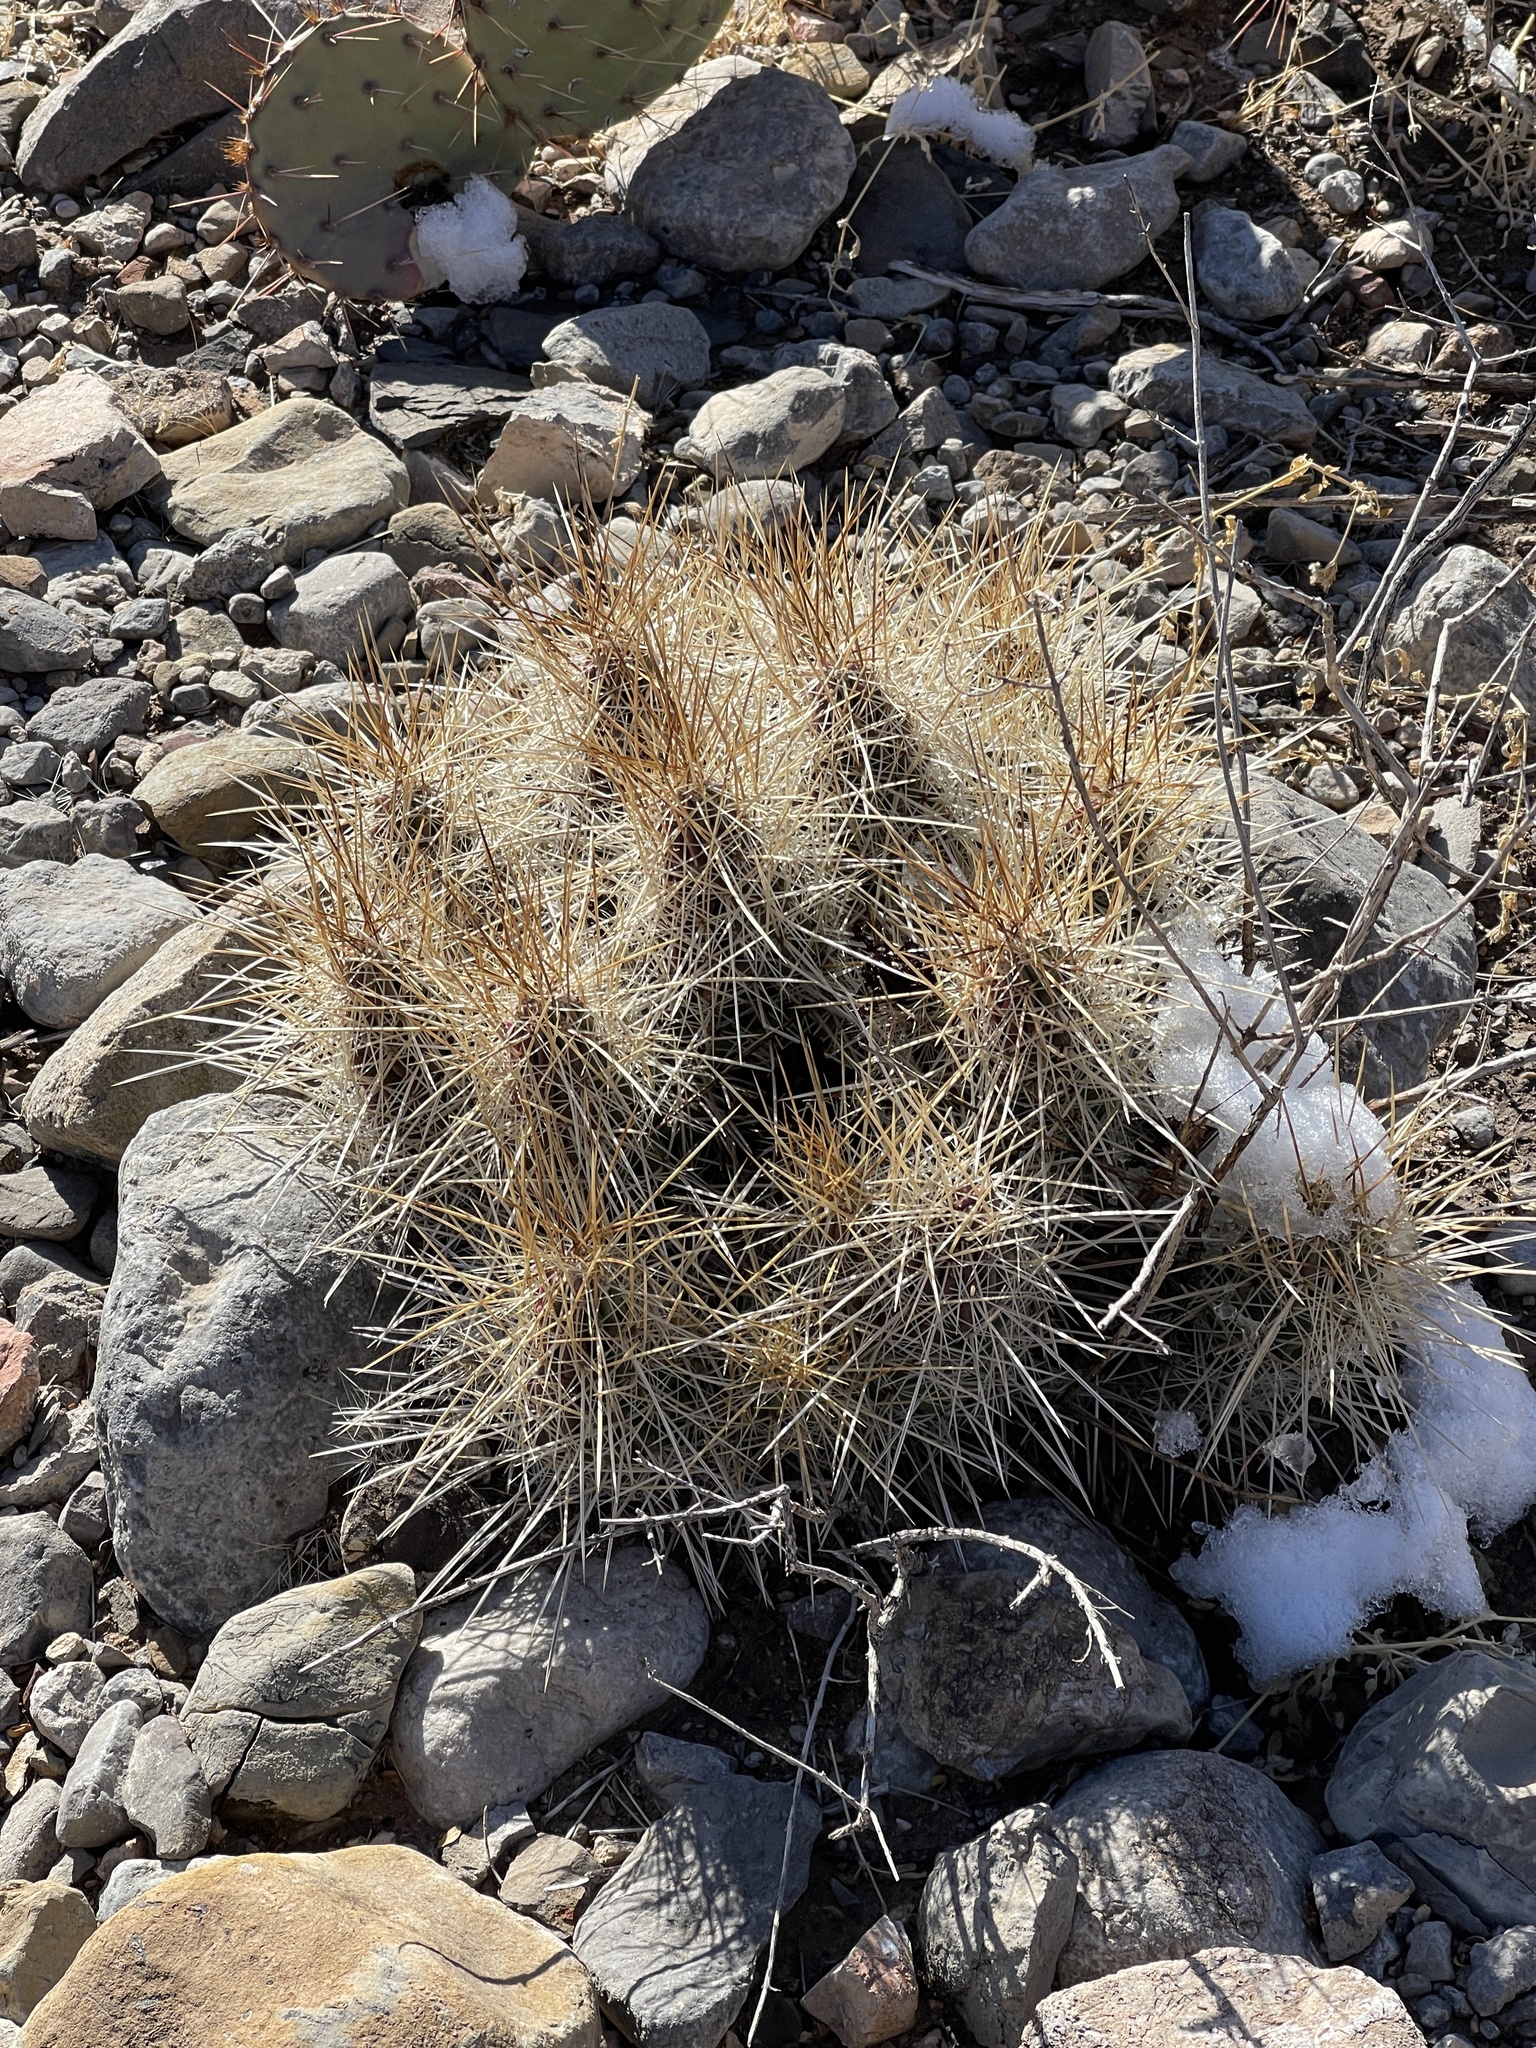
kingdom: Plantae
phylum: Tracheophyta
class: Magnoliopsida
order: Caryophyllales
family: Cactaceae
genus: Echinocereus
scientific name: Echinocereus stramineus
